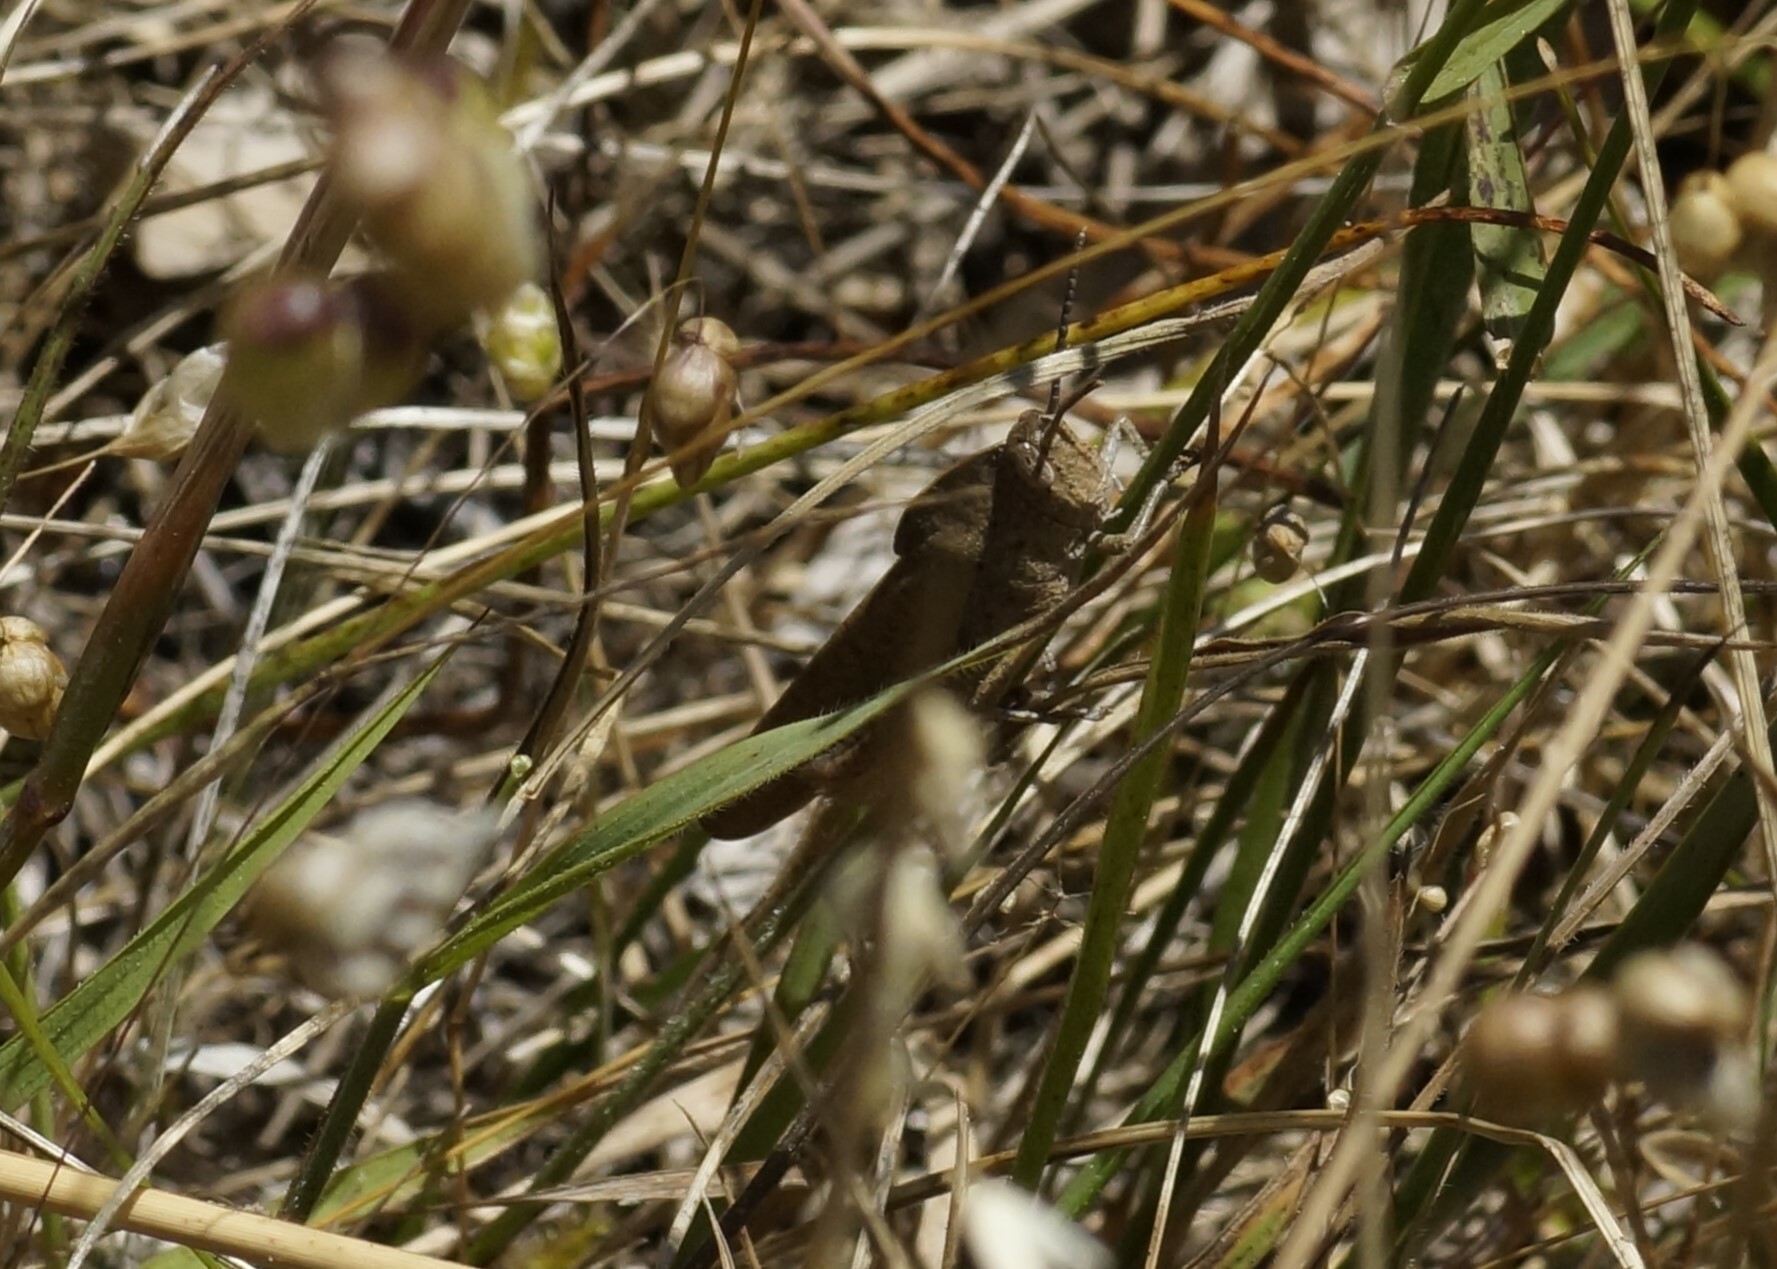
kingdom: Animalia
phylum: Arthropoda
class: Insecta
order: Orthoptera
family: Acrididae
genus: Goniaea
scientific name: Goniaea australasiae
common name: Gumleaf grasshopper
